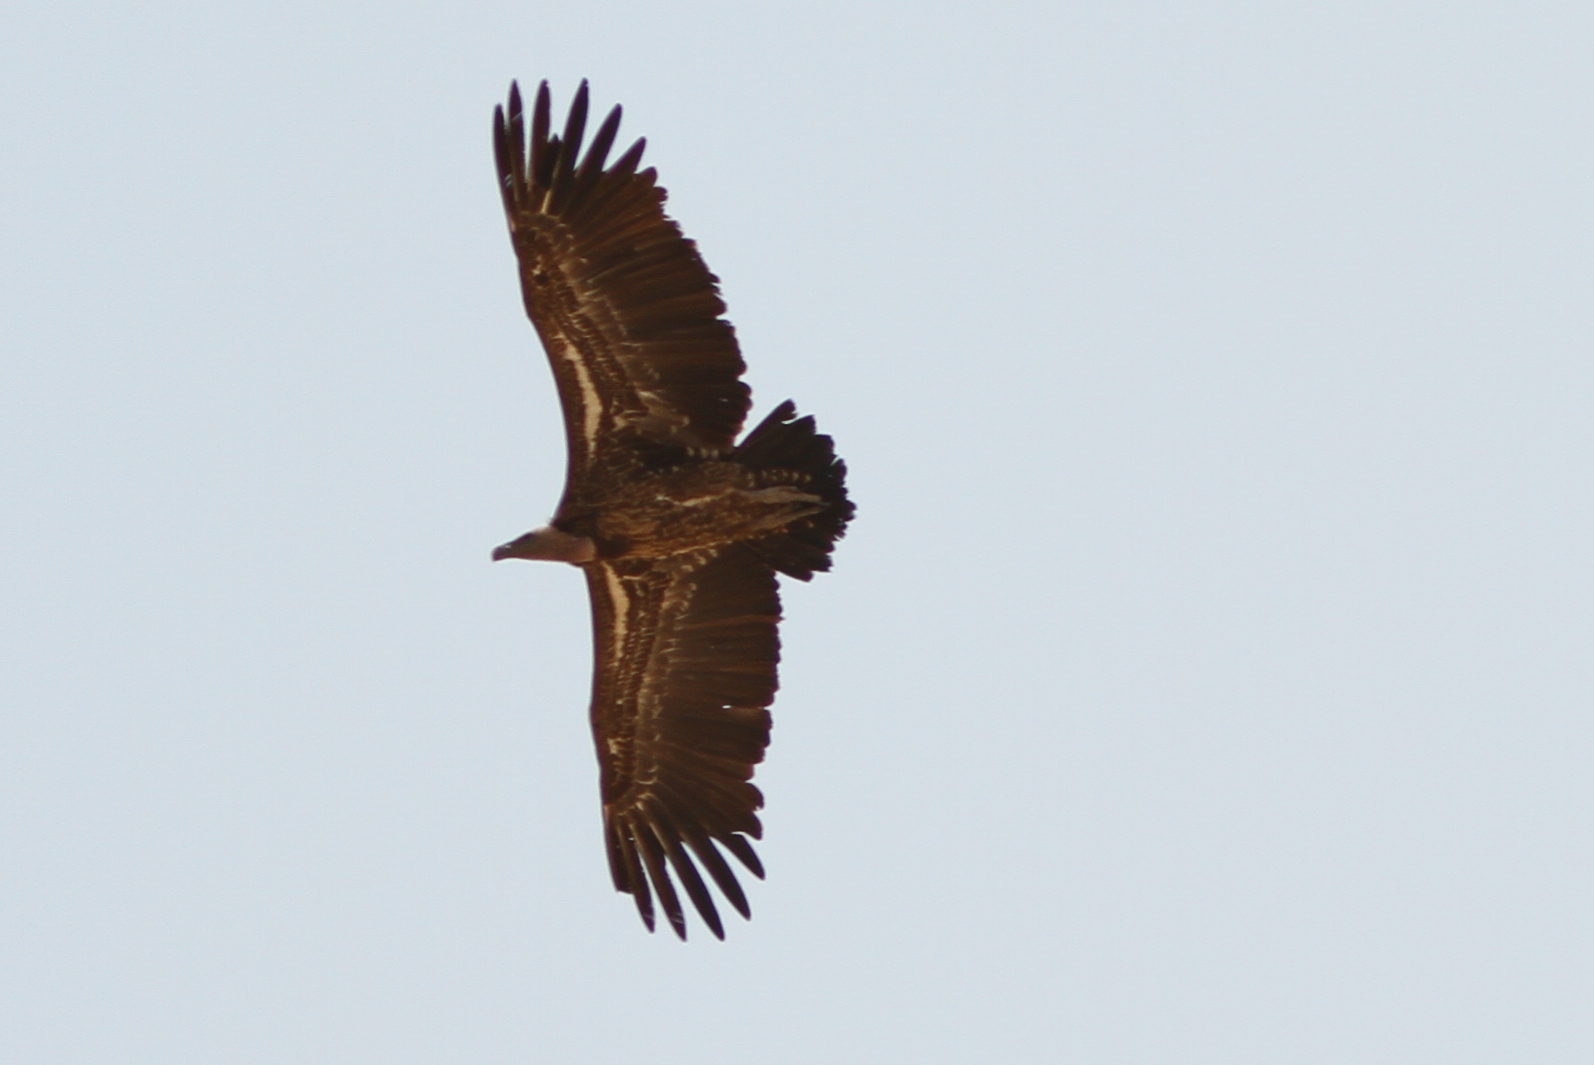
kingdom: Animalia
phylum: Chordata
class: Aves
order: Accipitriformes
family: Accipitridae
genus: Gyps
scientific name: Gyps rueppellii
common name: Rüppell's vulture
